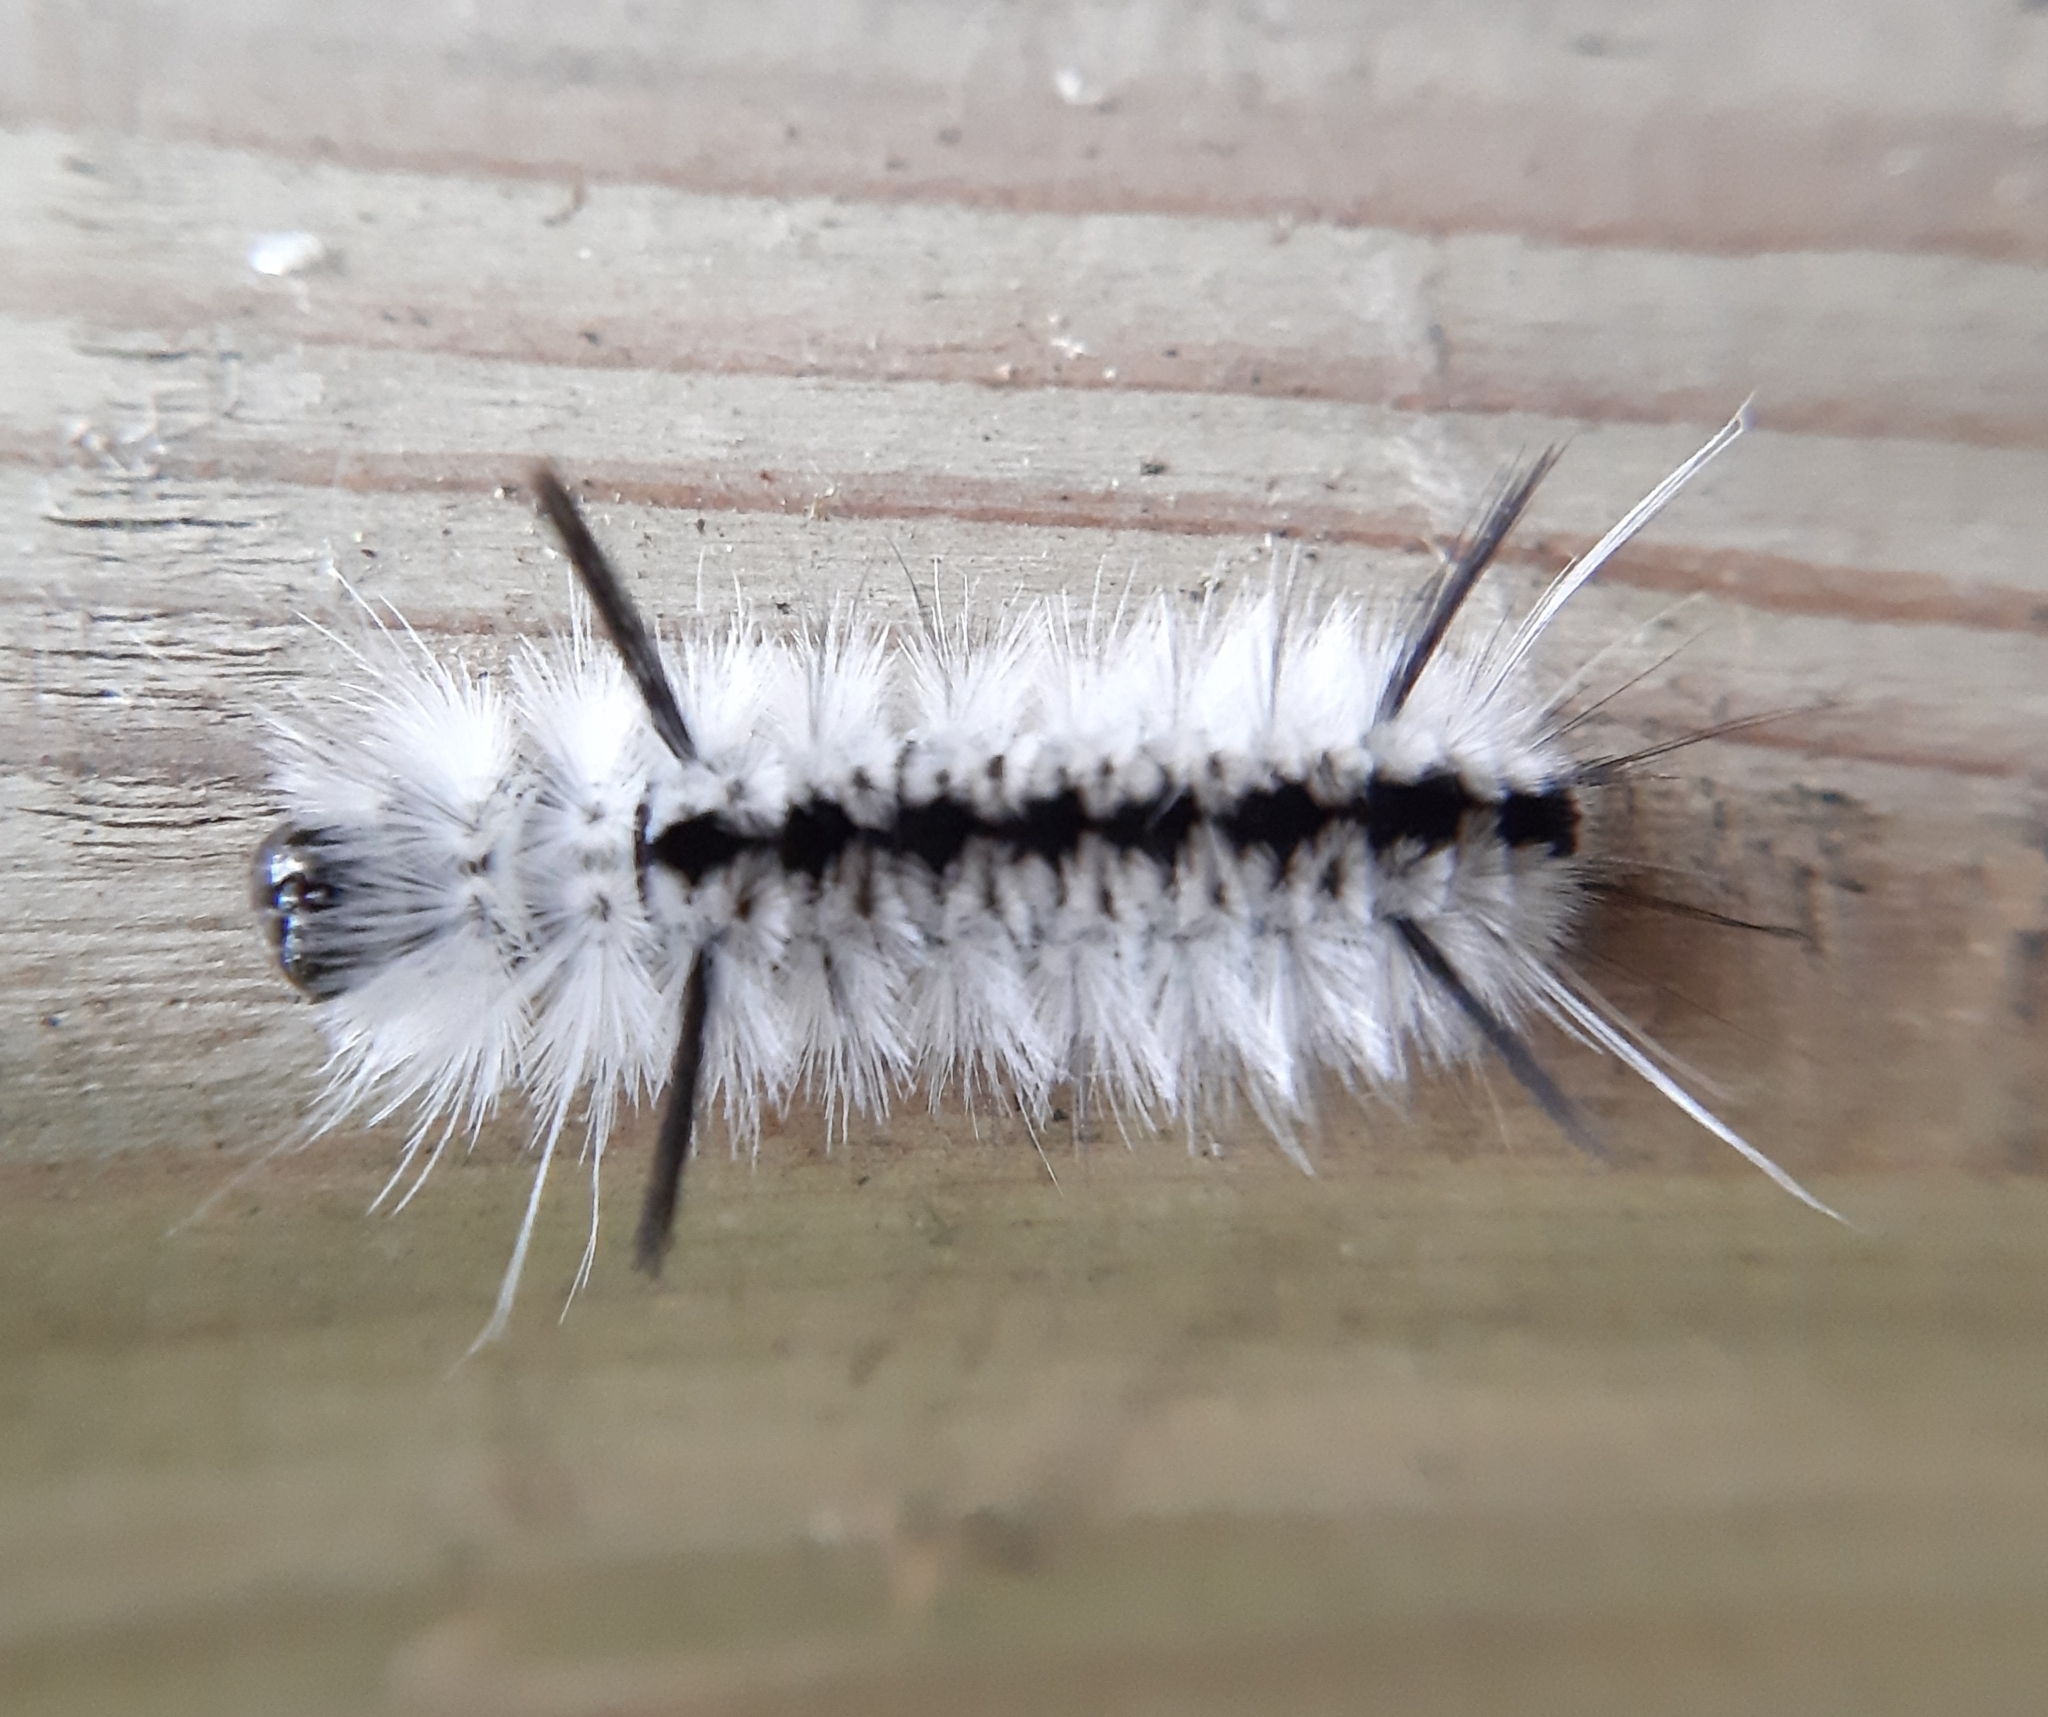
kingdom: Animalia
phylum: Arthropoda
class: Insecta
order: Lepidoptera
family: Erebidae
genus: Lophocampa
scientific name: Lophocampa caryae
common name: Hickory tussock moth
